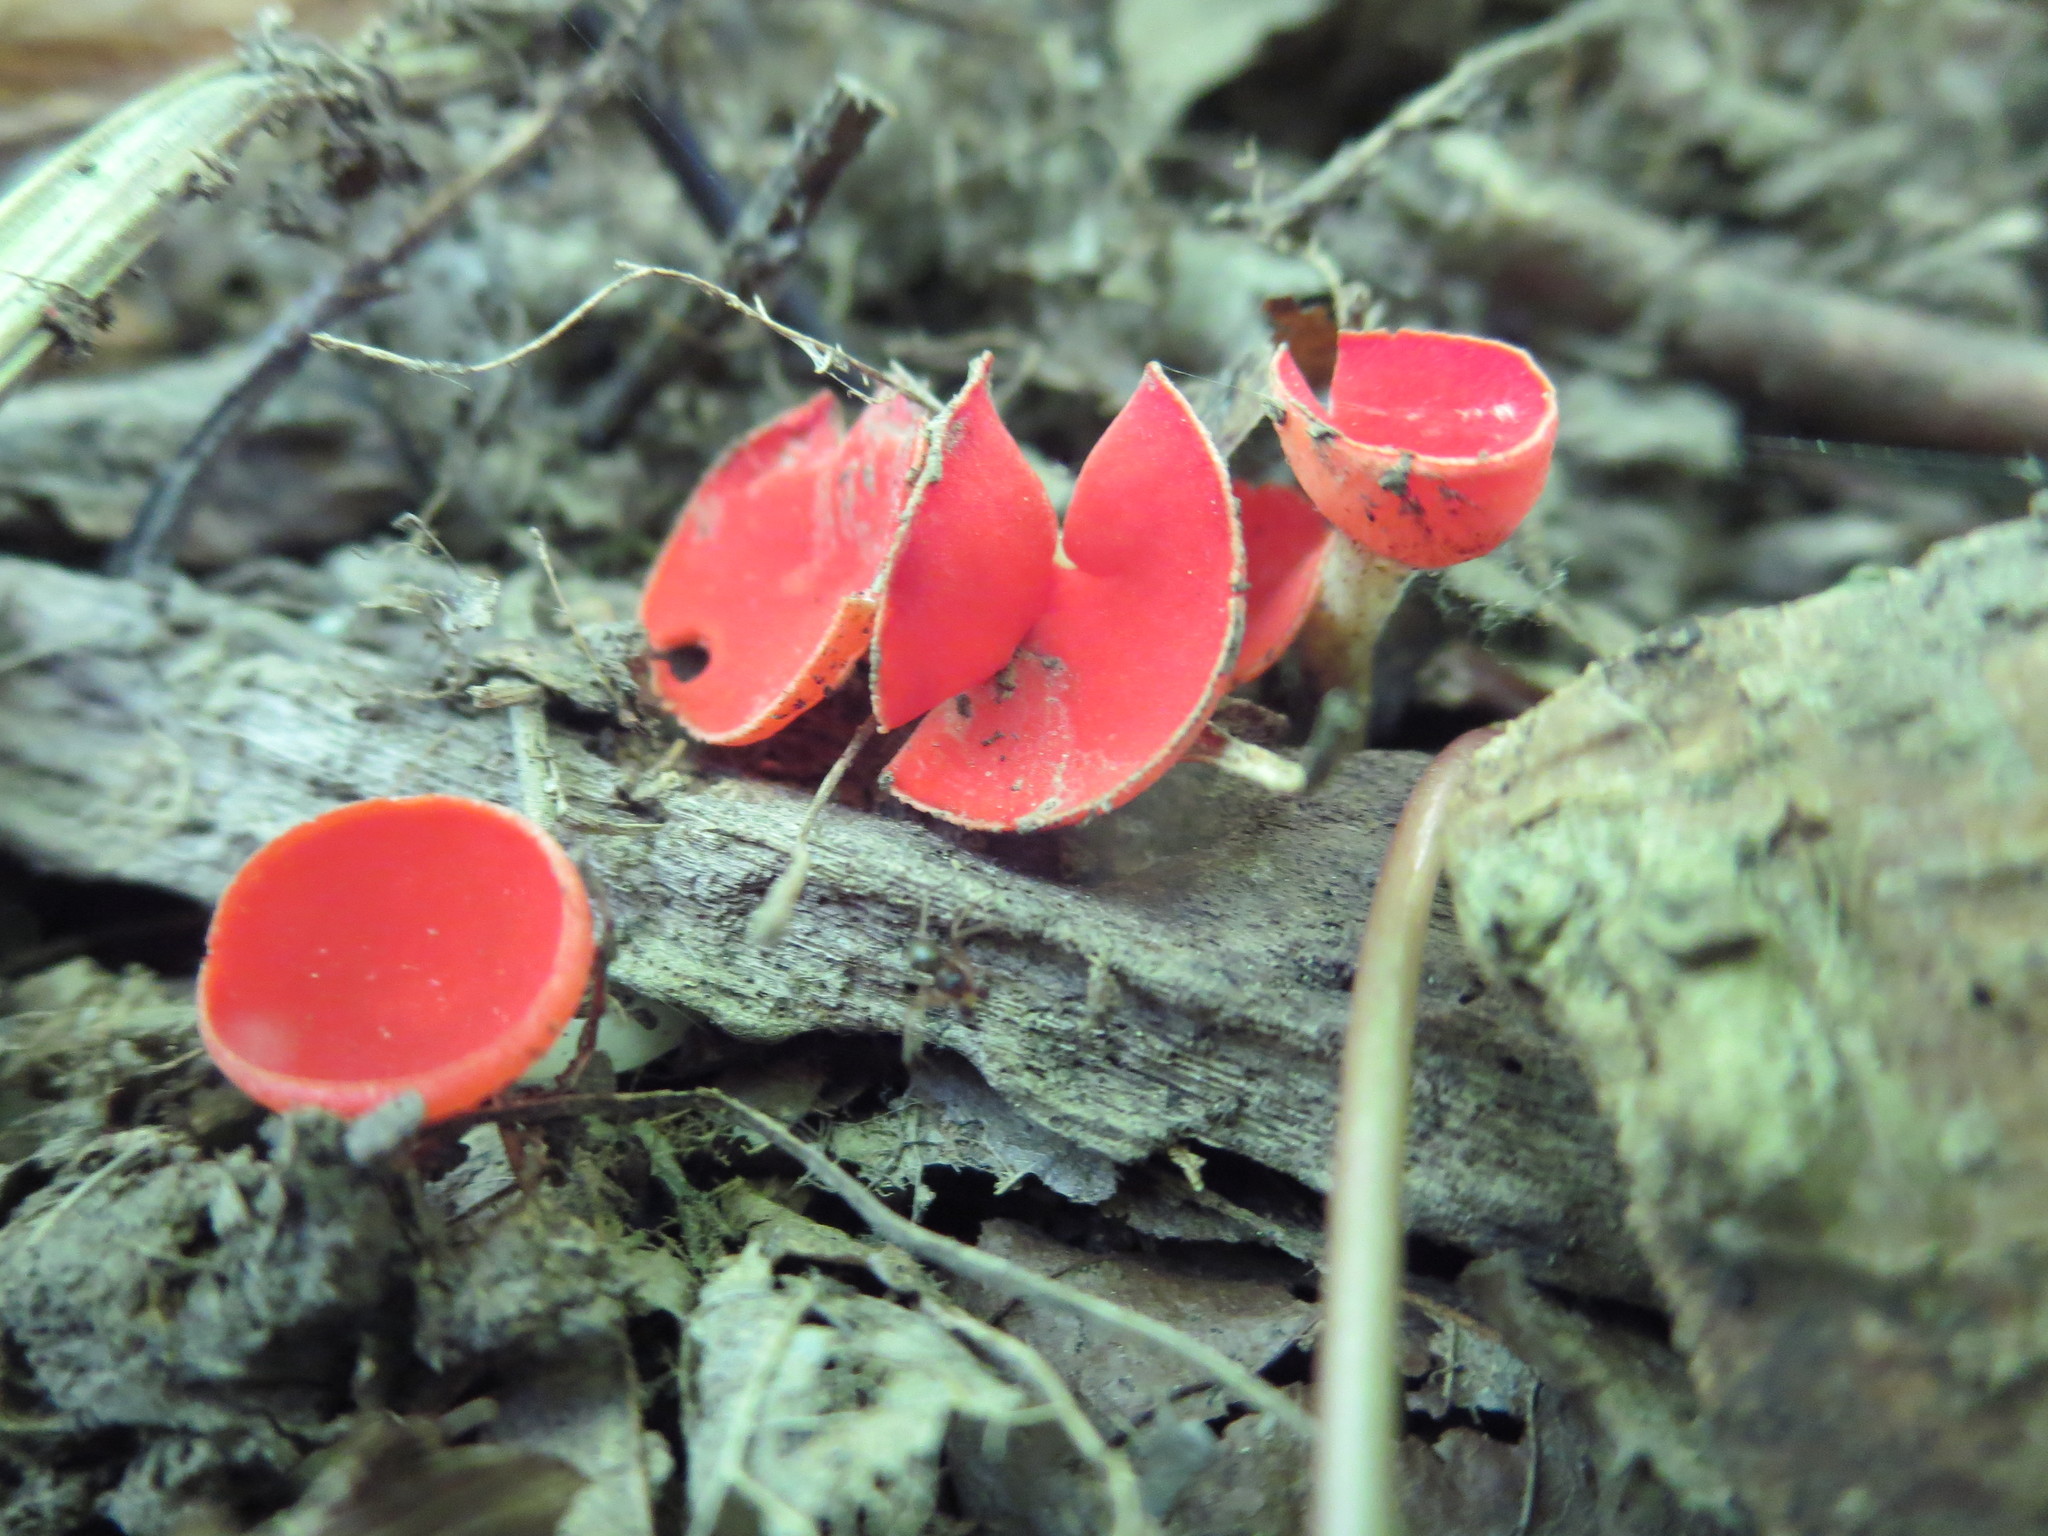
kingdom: Fungi
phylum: Ascomycota
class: Pezizomycetes
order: Pezizales
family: Sarcoscyphaceae
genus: Sarcoscypha
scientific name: Sarcoscypha occidentalis
